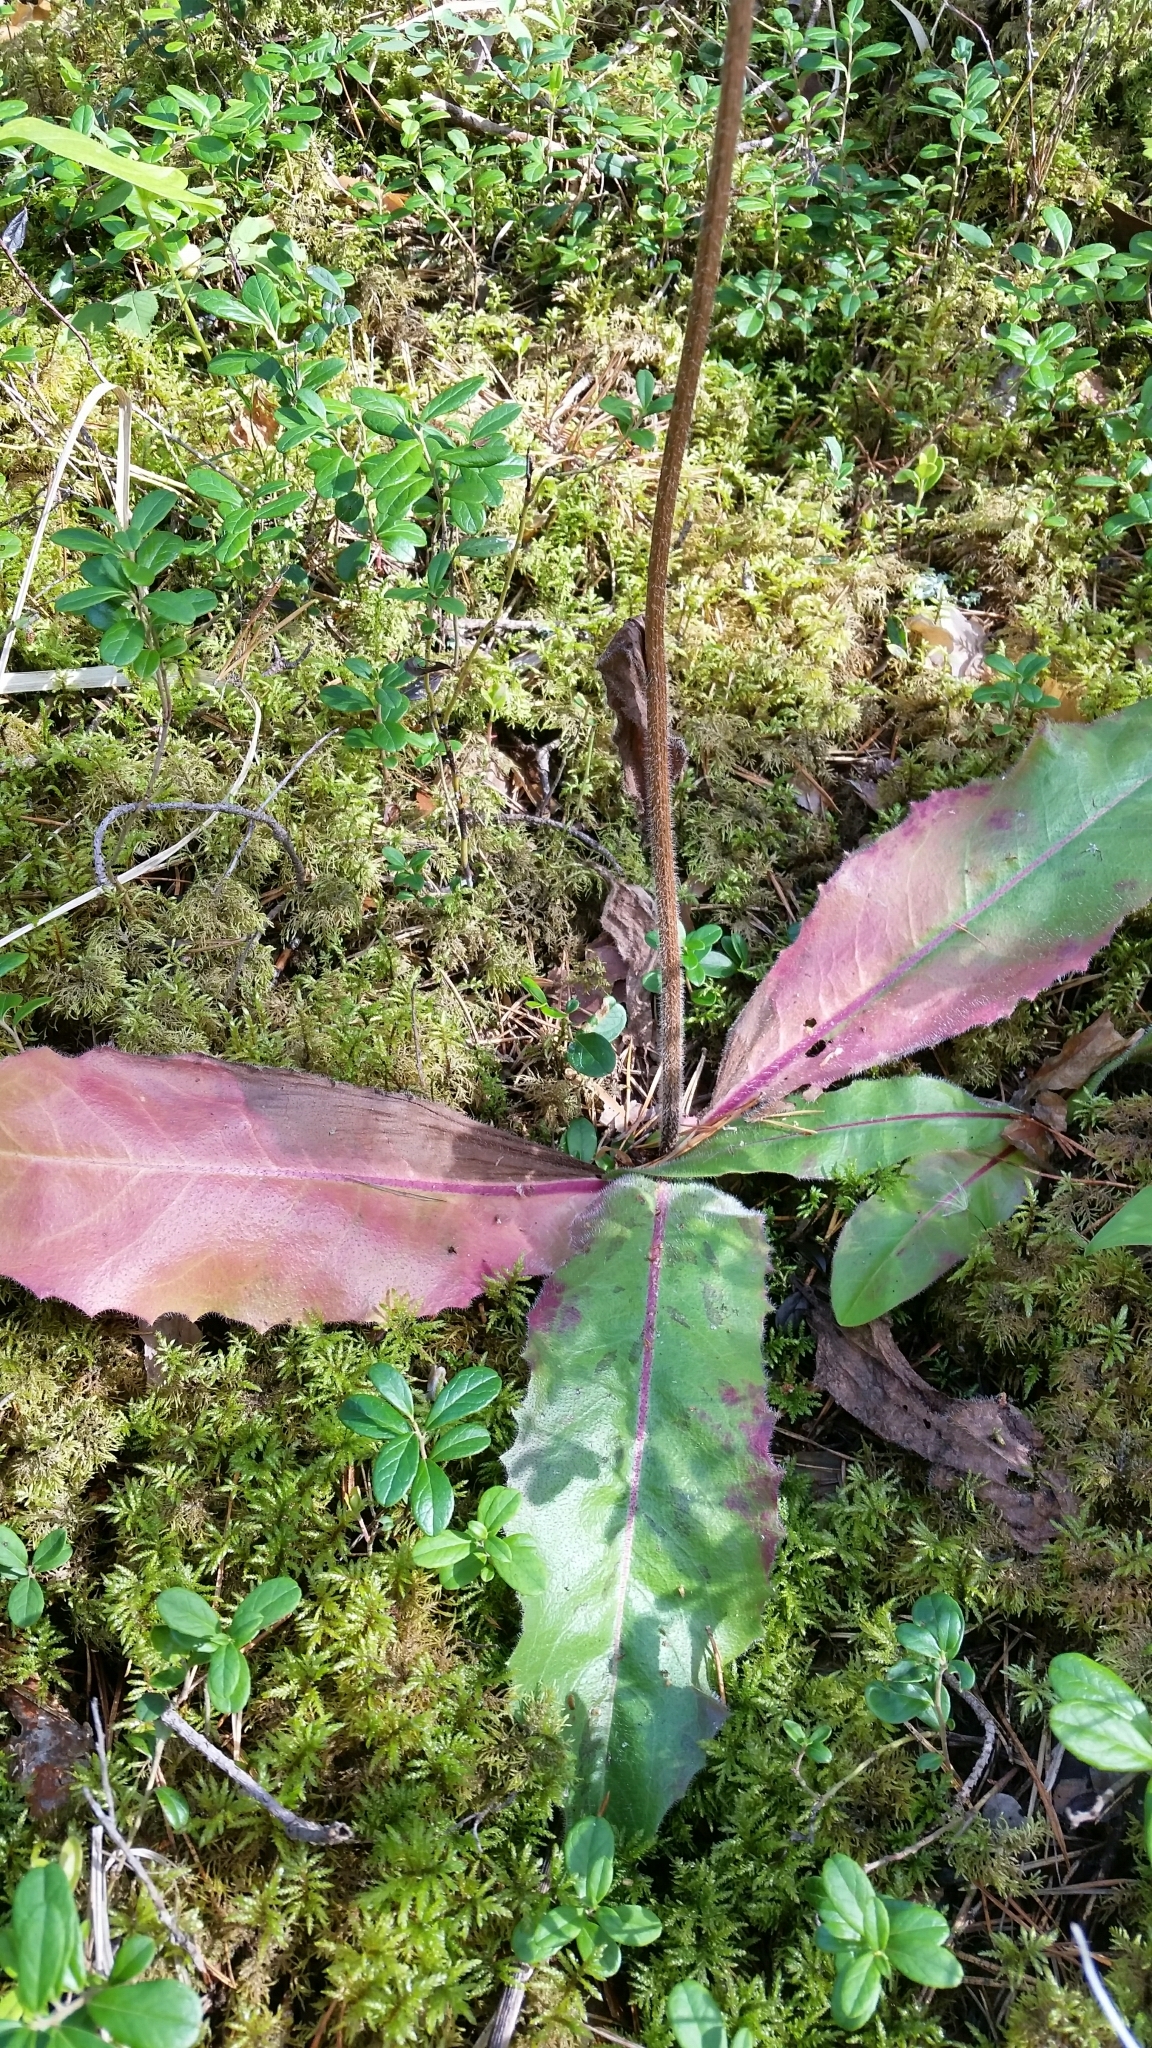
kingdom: Plantae
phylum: Tracheophyta
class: Magnoliopsida
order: Asterales
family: Asteraceae
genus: Trommsdorffia
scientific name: Trommsdorffia maculata
